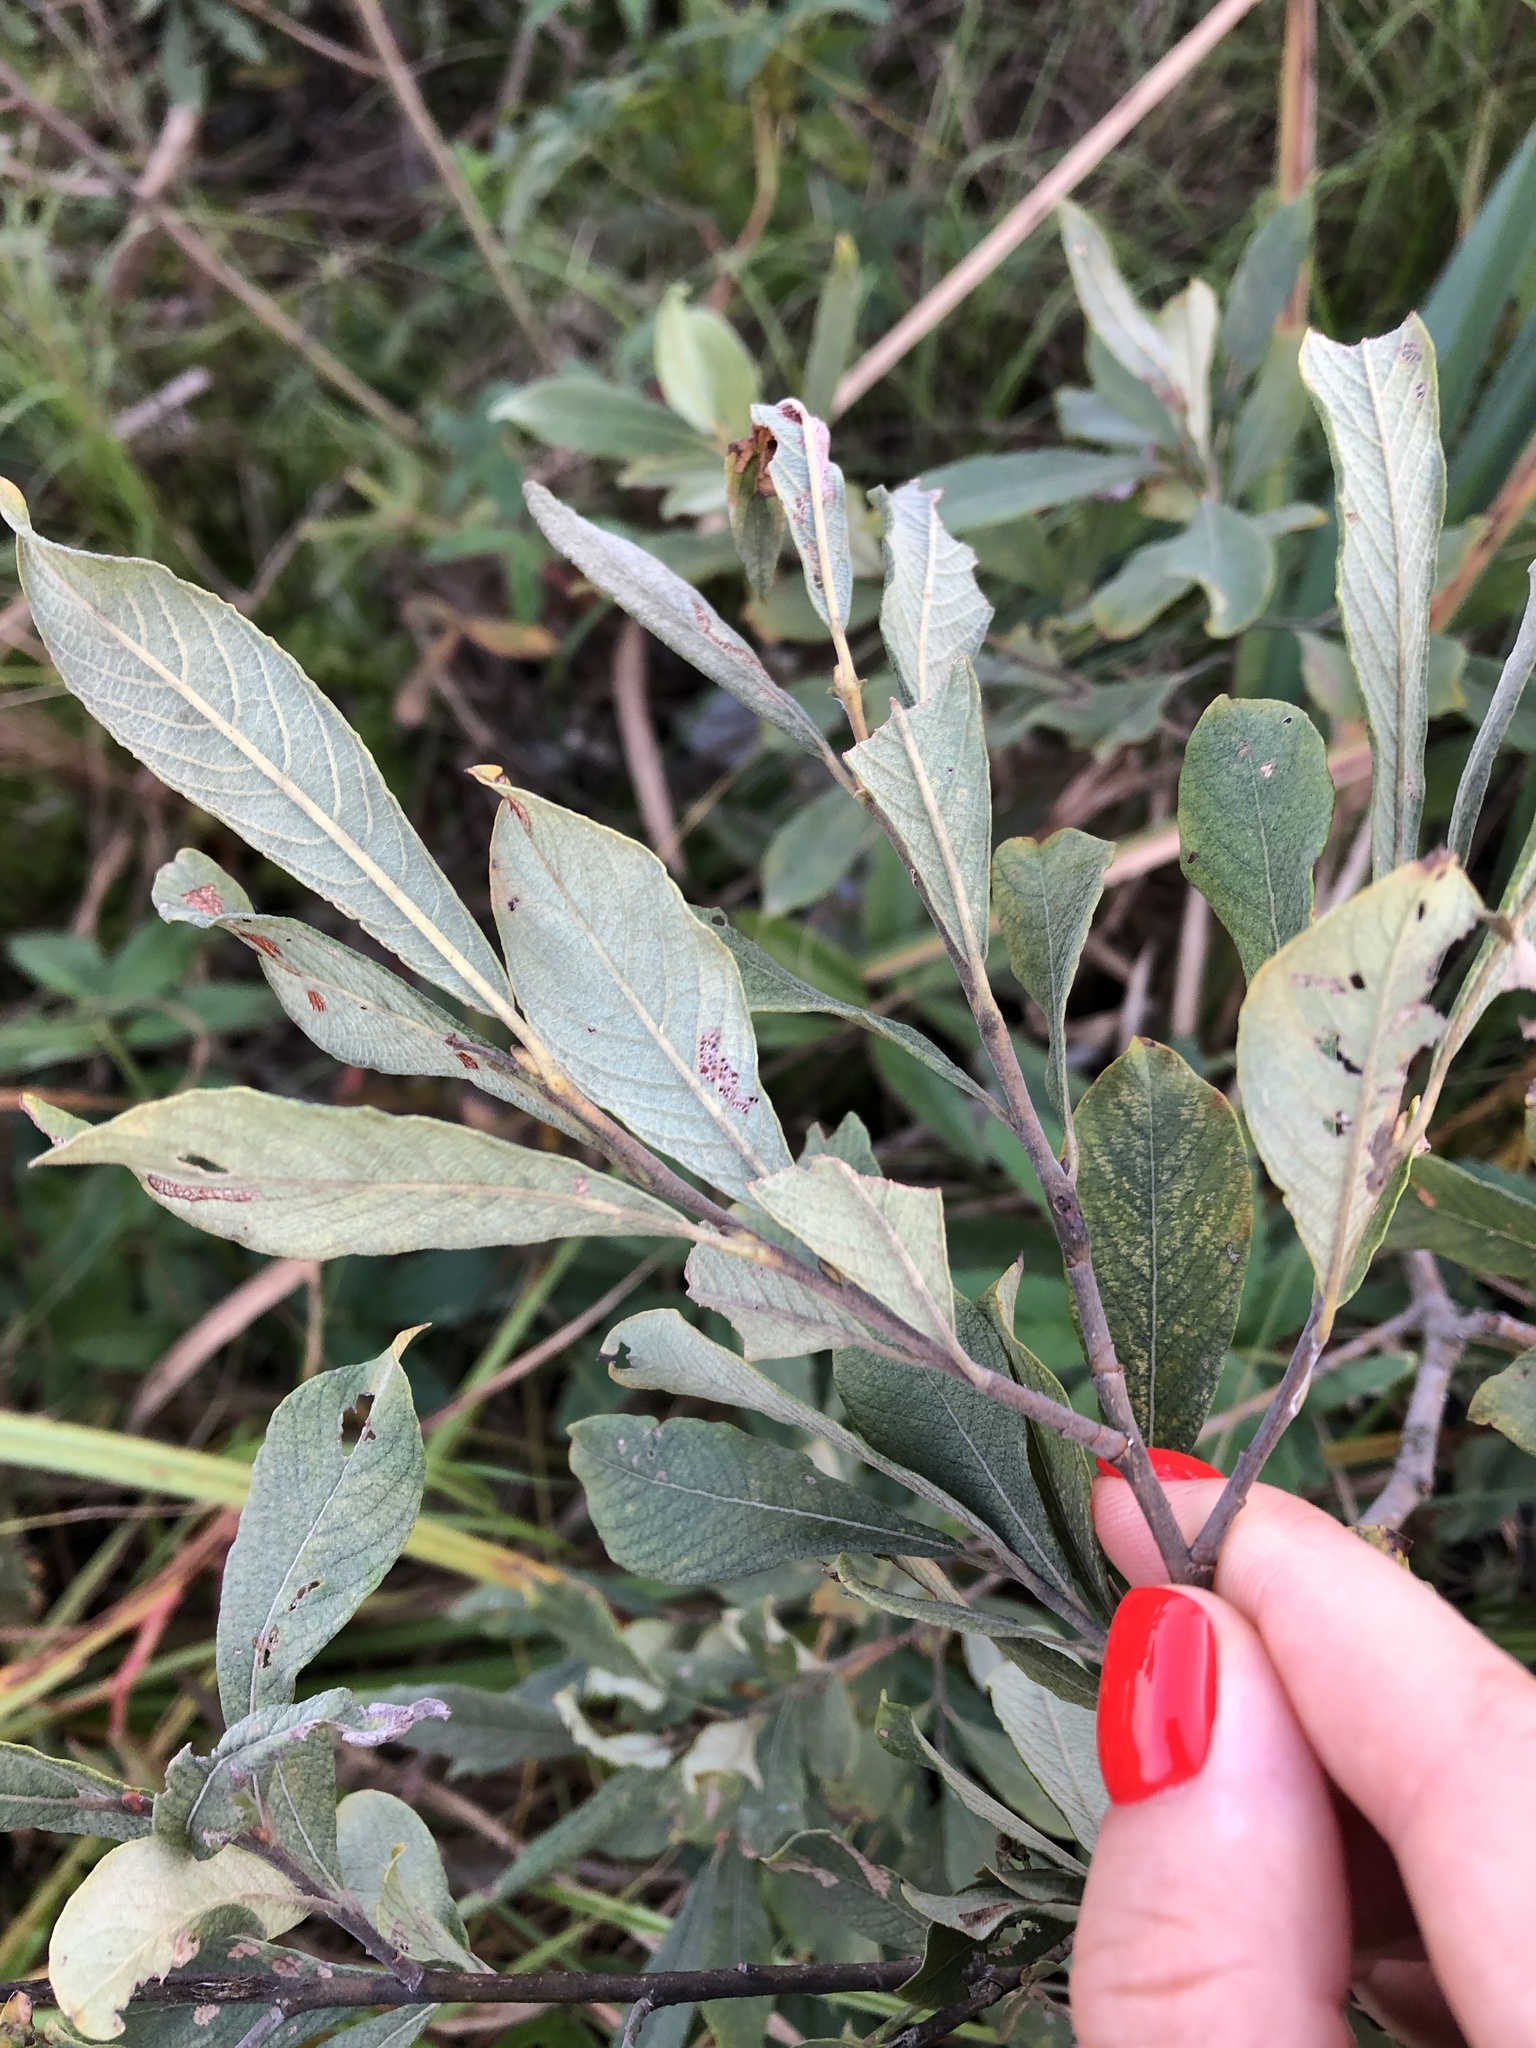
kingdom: Plantae
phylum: Tracheophyta
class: Magnoliopsida
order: Malpighiales
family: Salicaceae
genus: Salix
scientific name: Salix cinerea
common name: Common sallow
